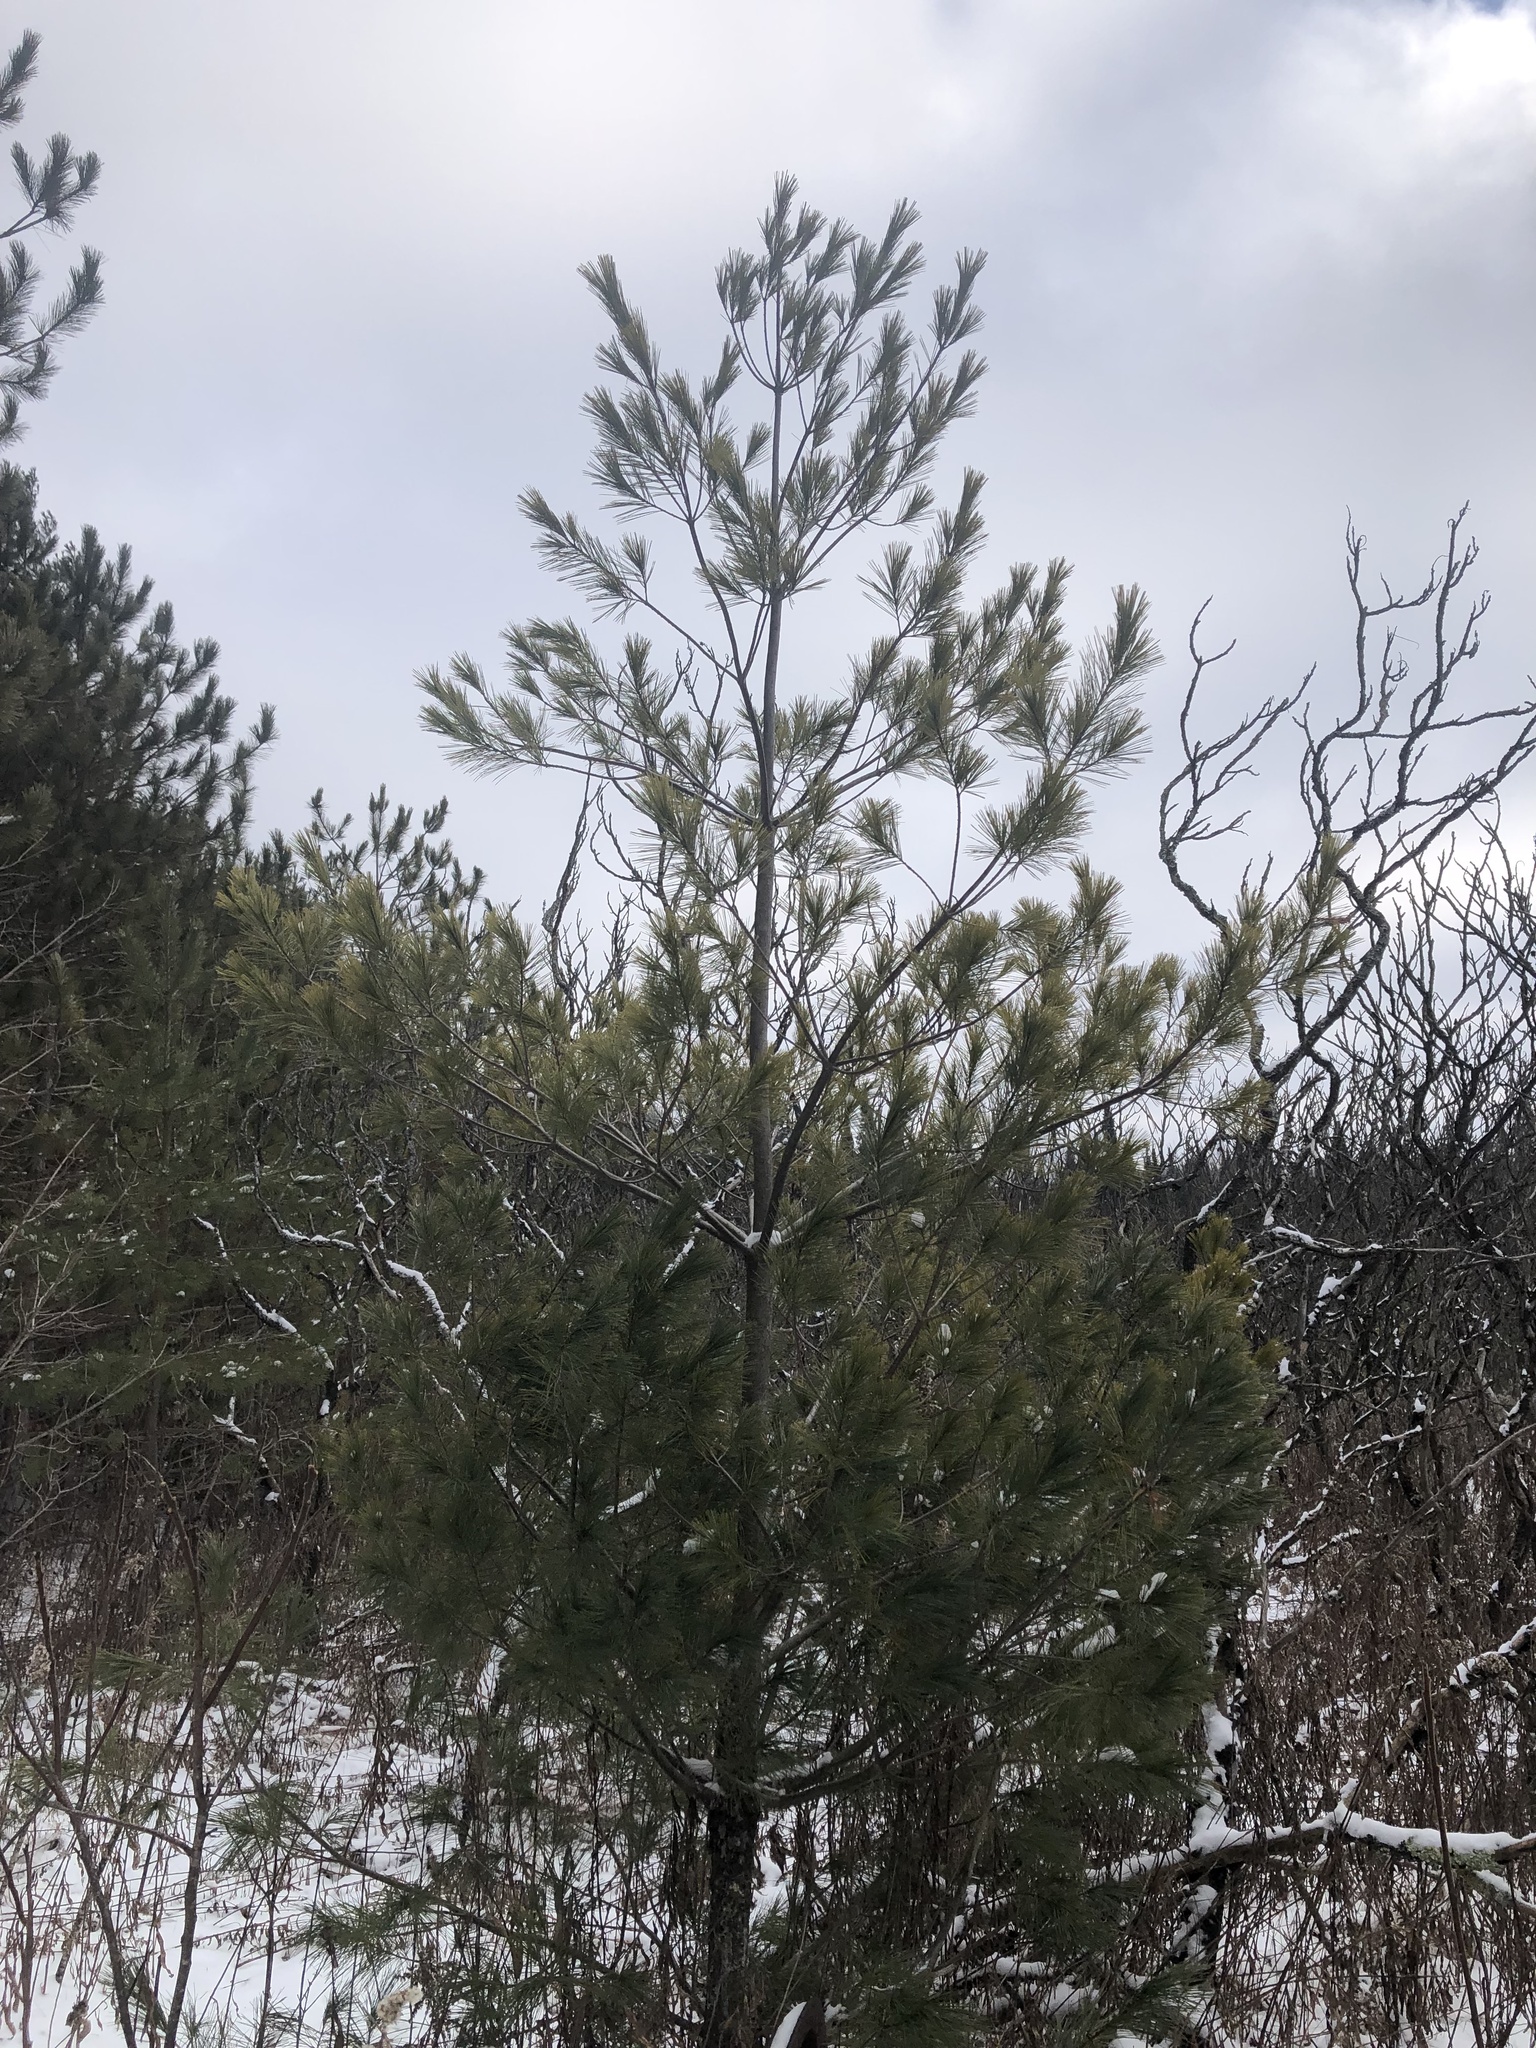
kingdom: Plantae
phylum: Tracheophyta
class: Pinopsida
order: Pinales
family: Pinaceae
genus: Pinus
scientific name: Pinus strobus
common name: Weymouth pine
